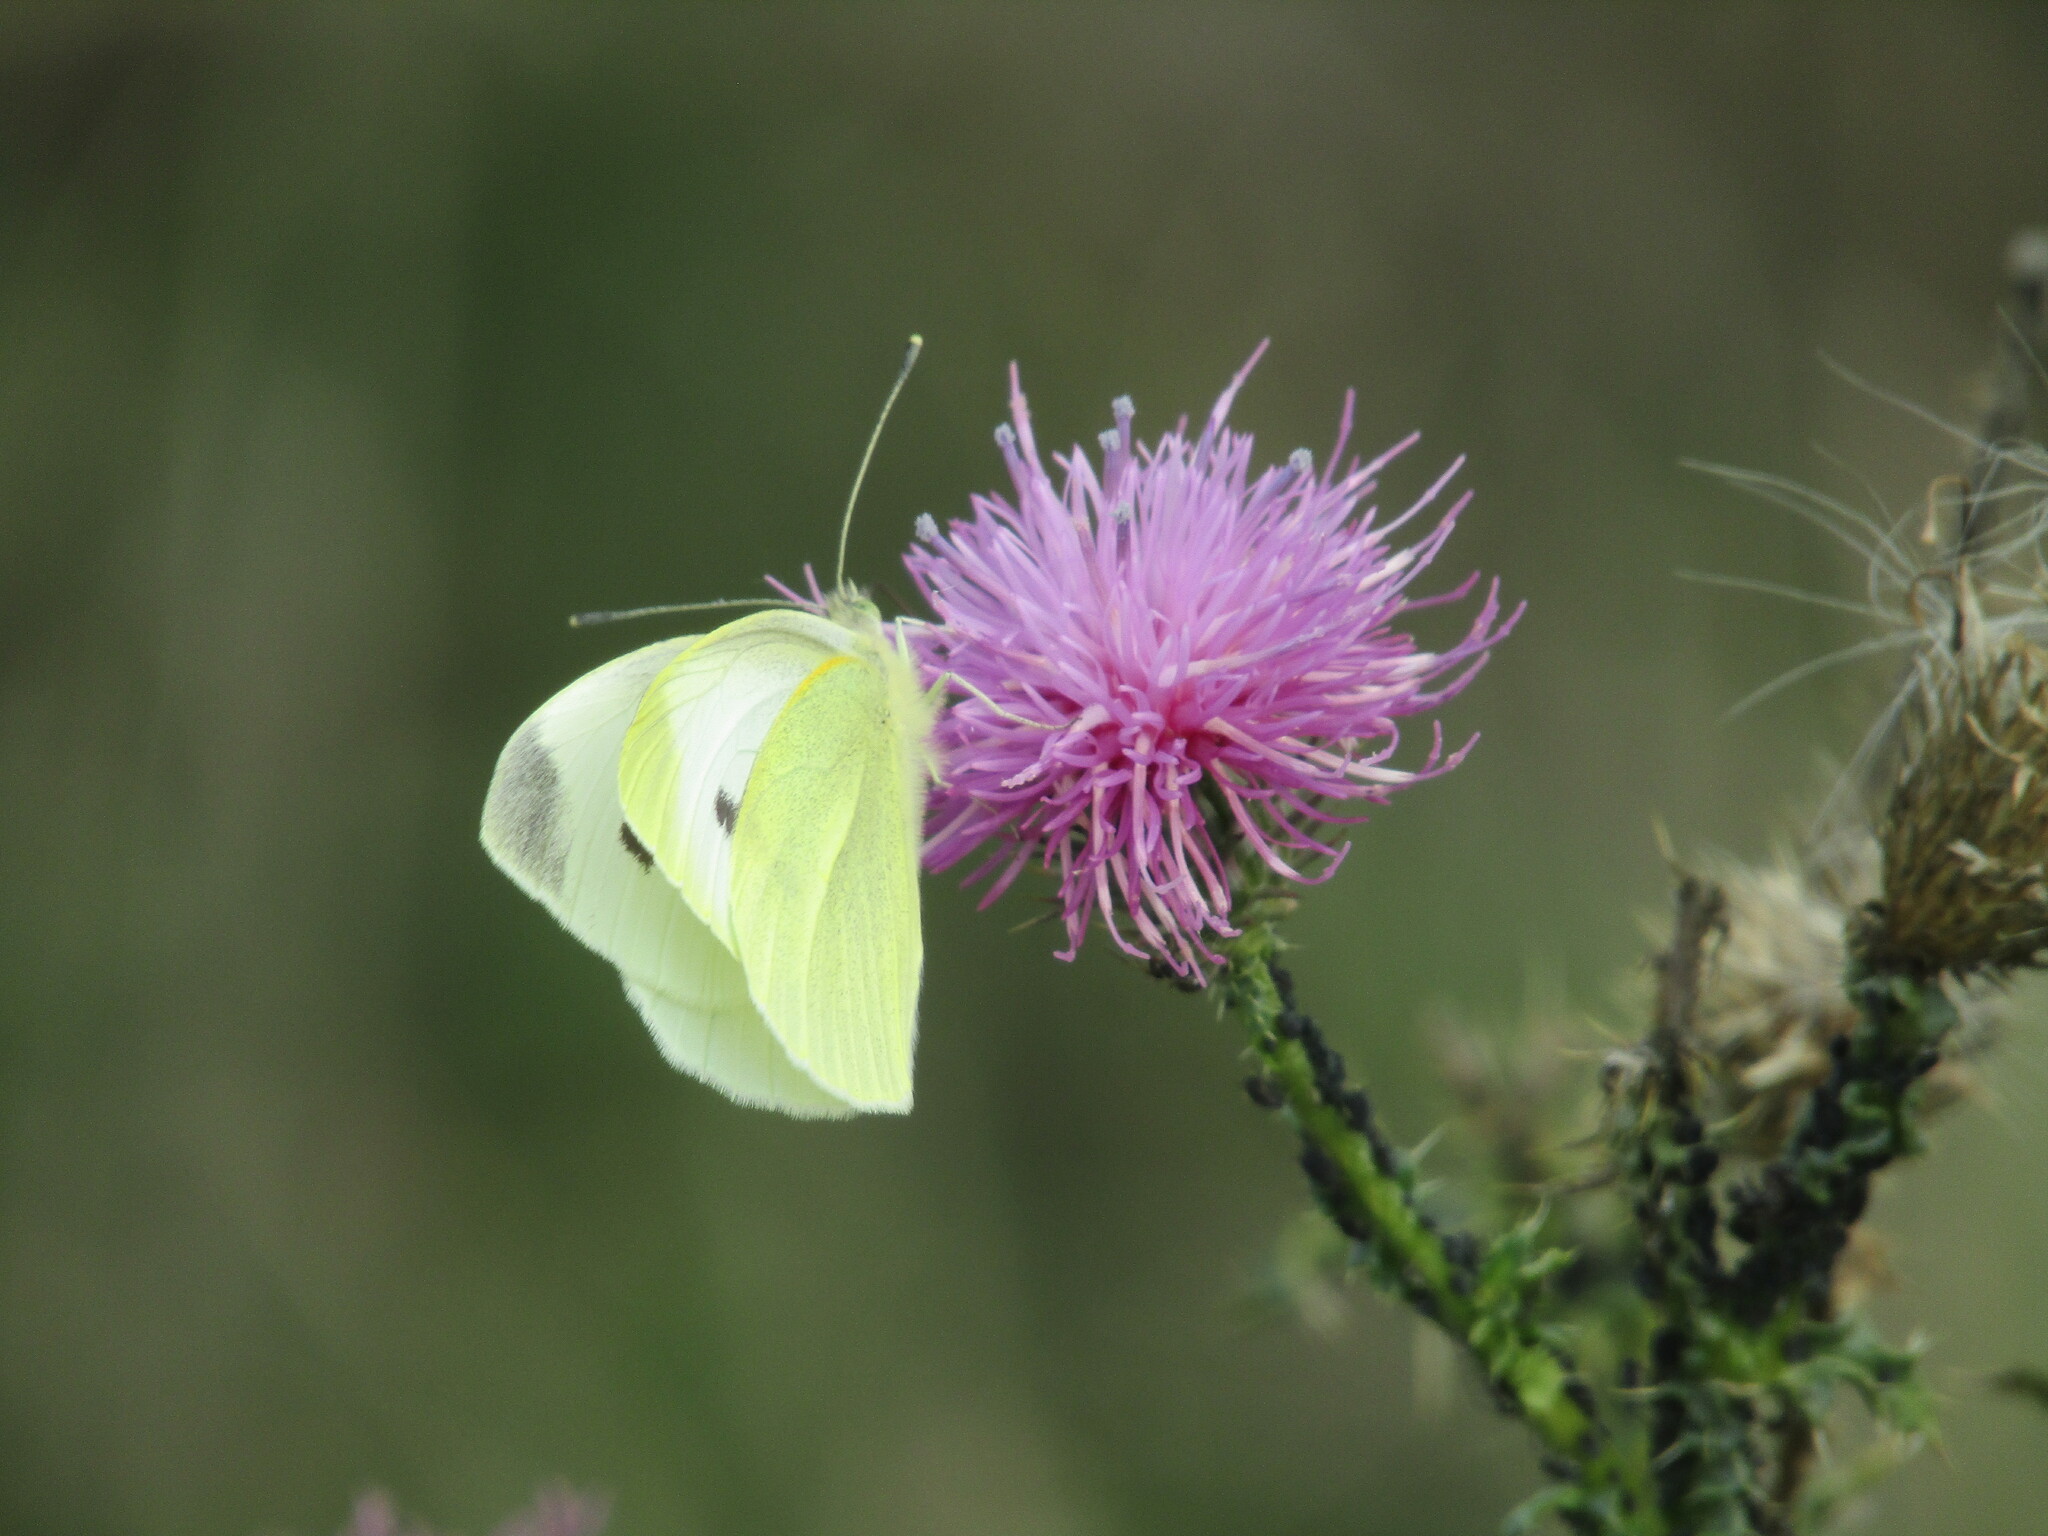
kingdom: Animalia
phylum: Arthropoda
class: Insecta
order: Lepidoptera
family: Pieridae
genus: Pieris
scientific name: Pieris rapae
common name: Small white
